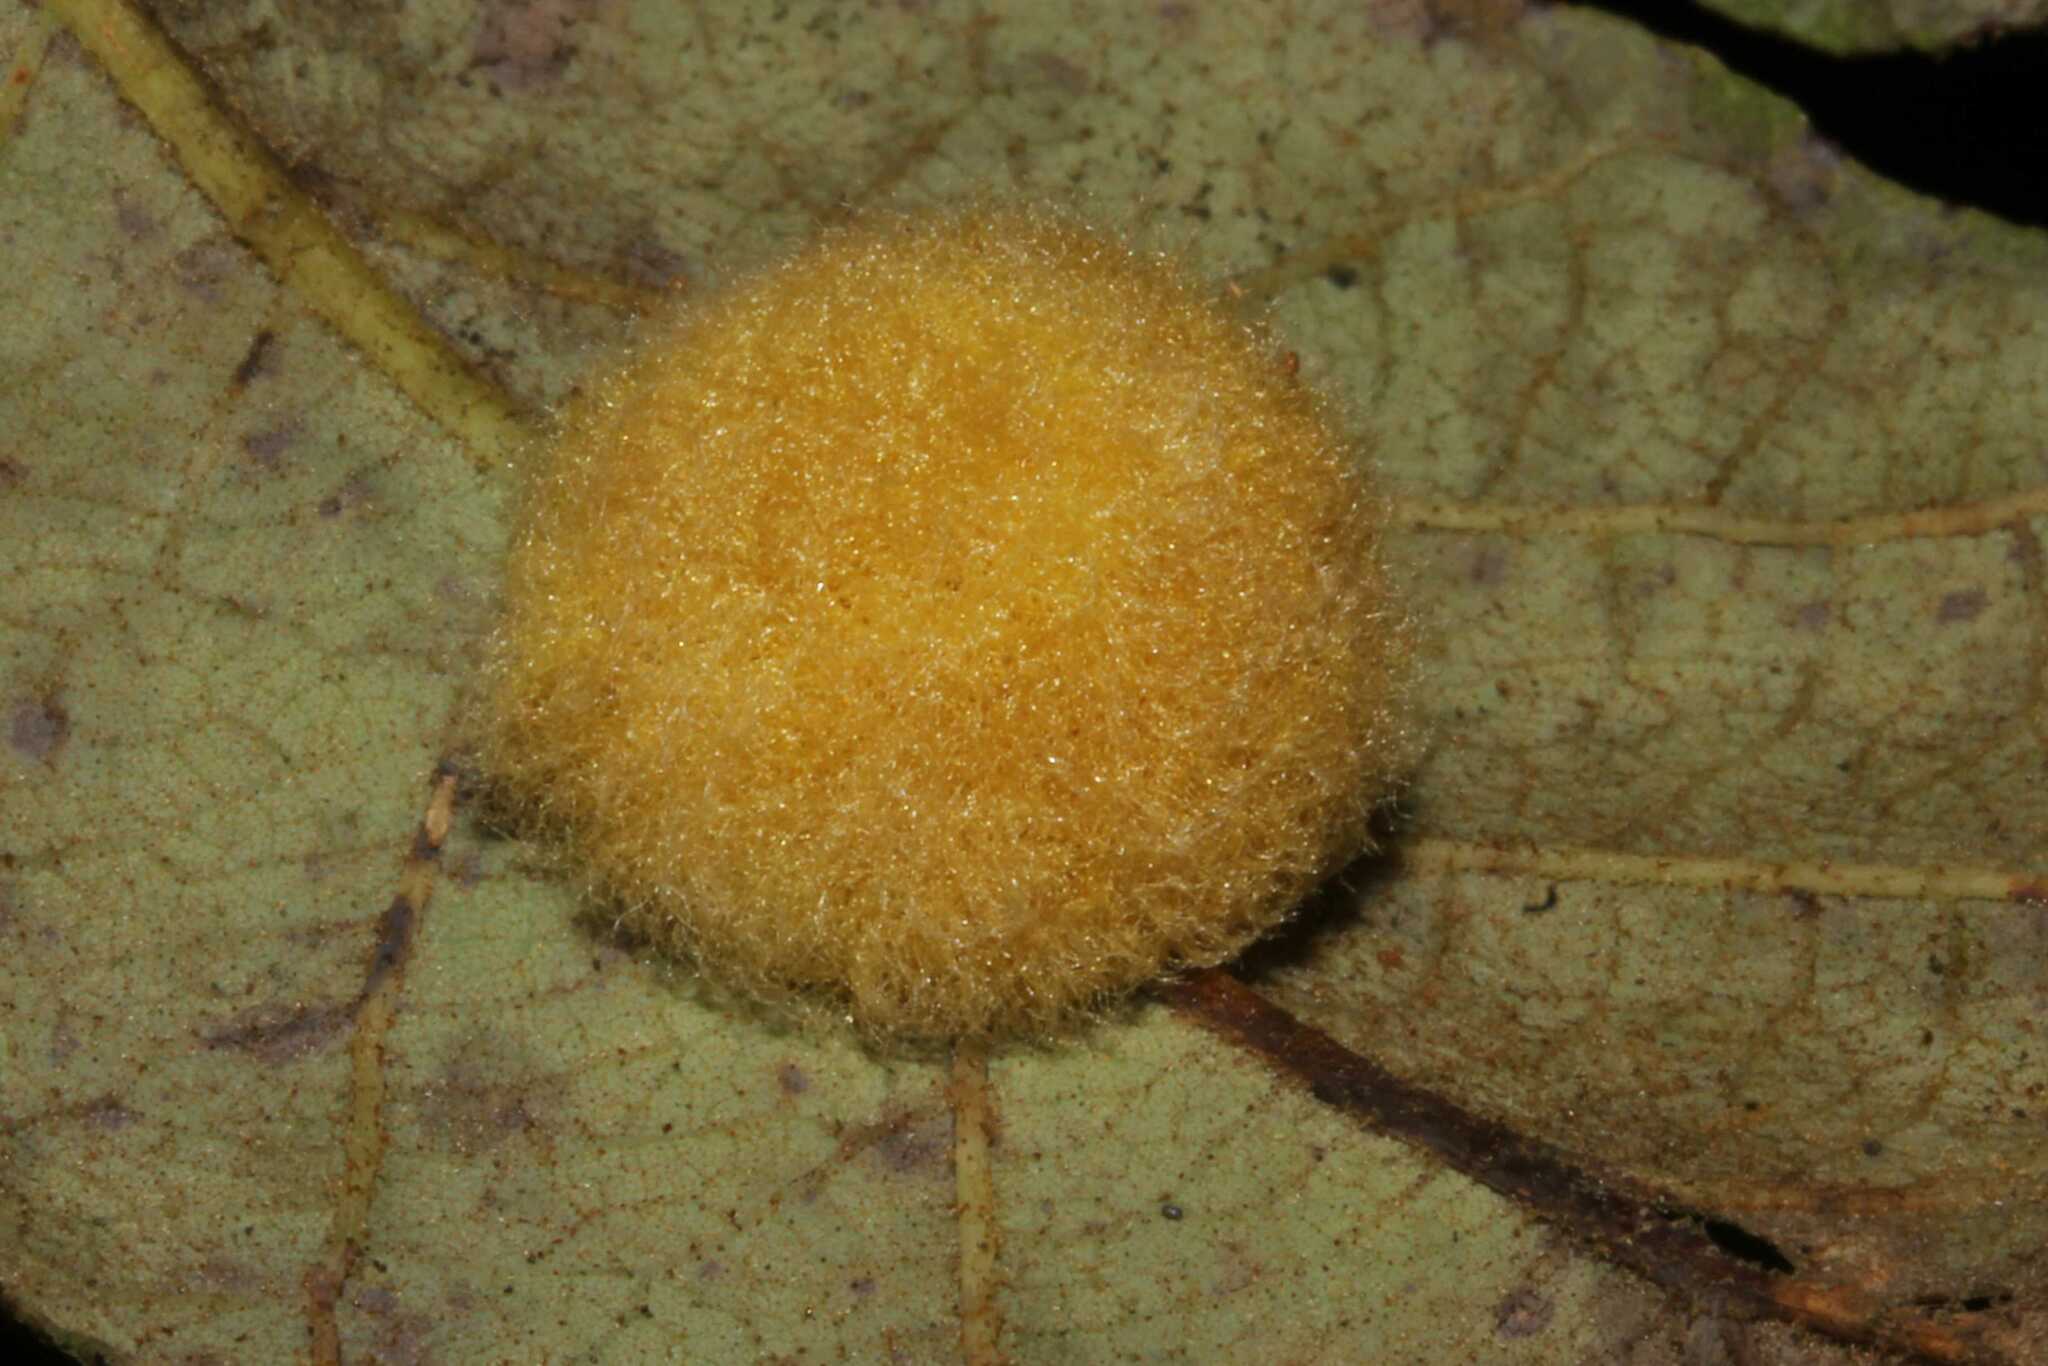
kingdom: Animalia
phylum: Arthropoda
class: Insecta
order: Hymenoptera
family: Cynipidae
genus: Striatoandricus
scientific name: Striatoandricus
